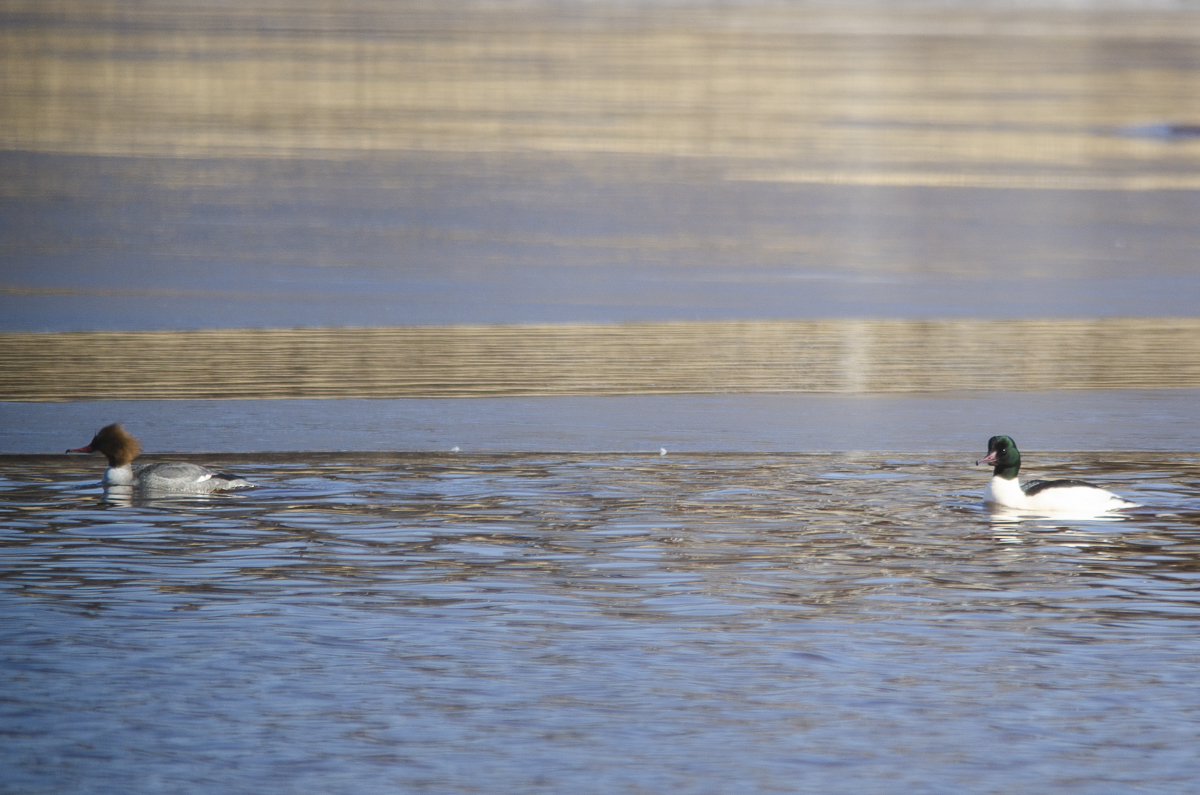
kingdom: Animalia
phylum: Chordata
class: Aves
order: Anseriformes
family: Anatidae
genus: Mergus
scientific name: Mergus merganser
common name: Common merganser
